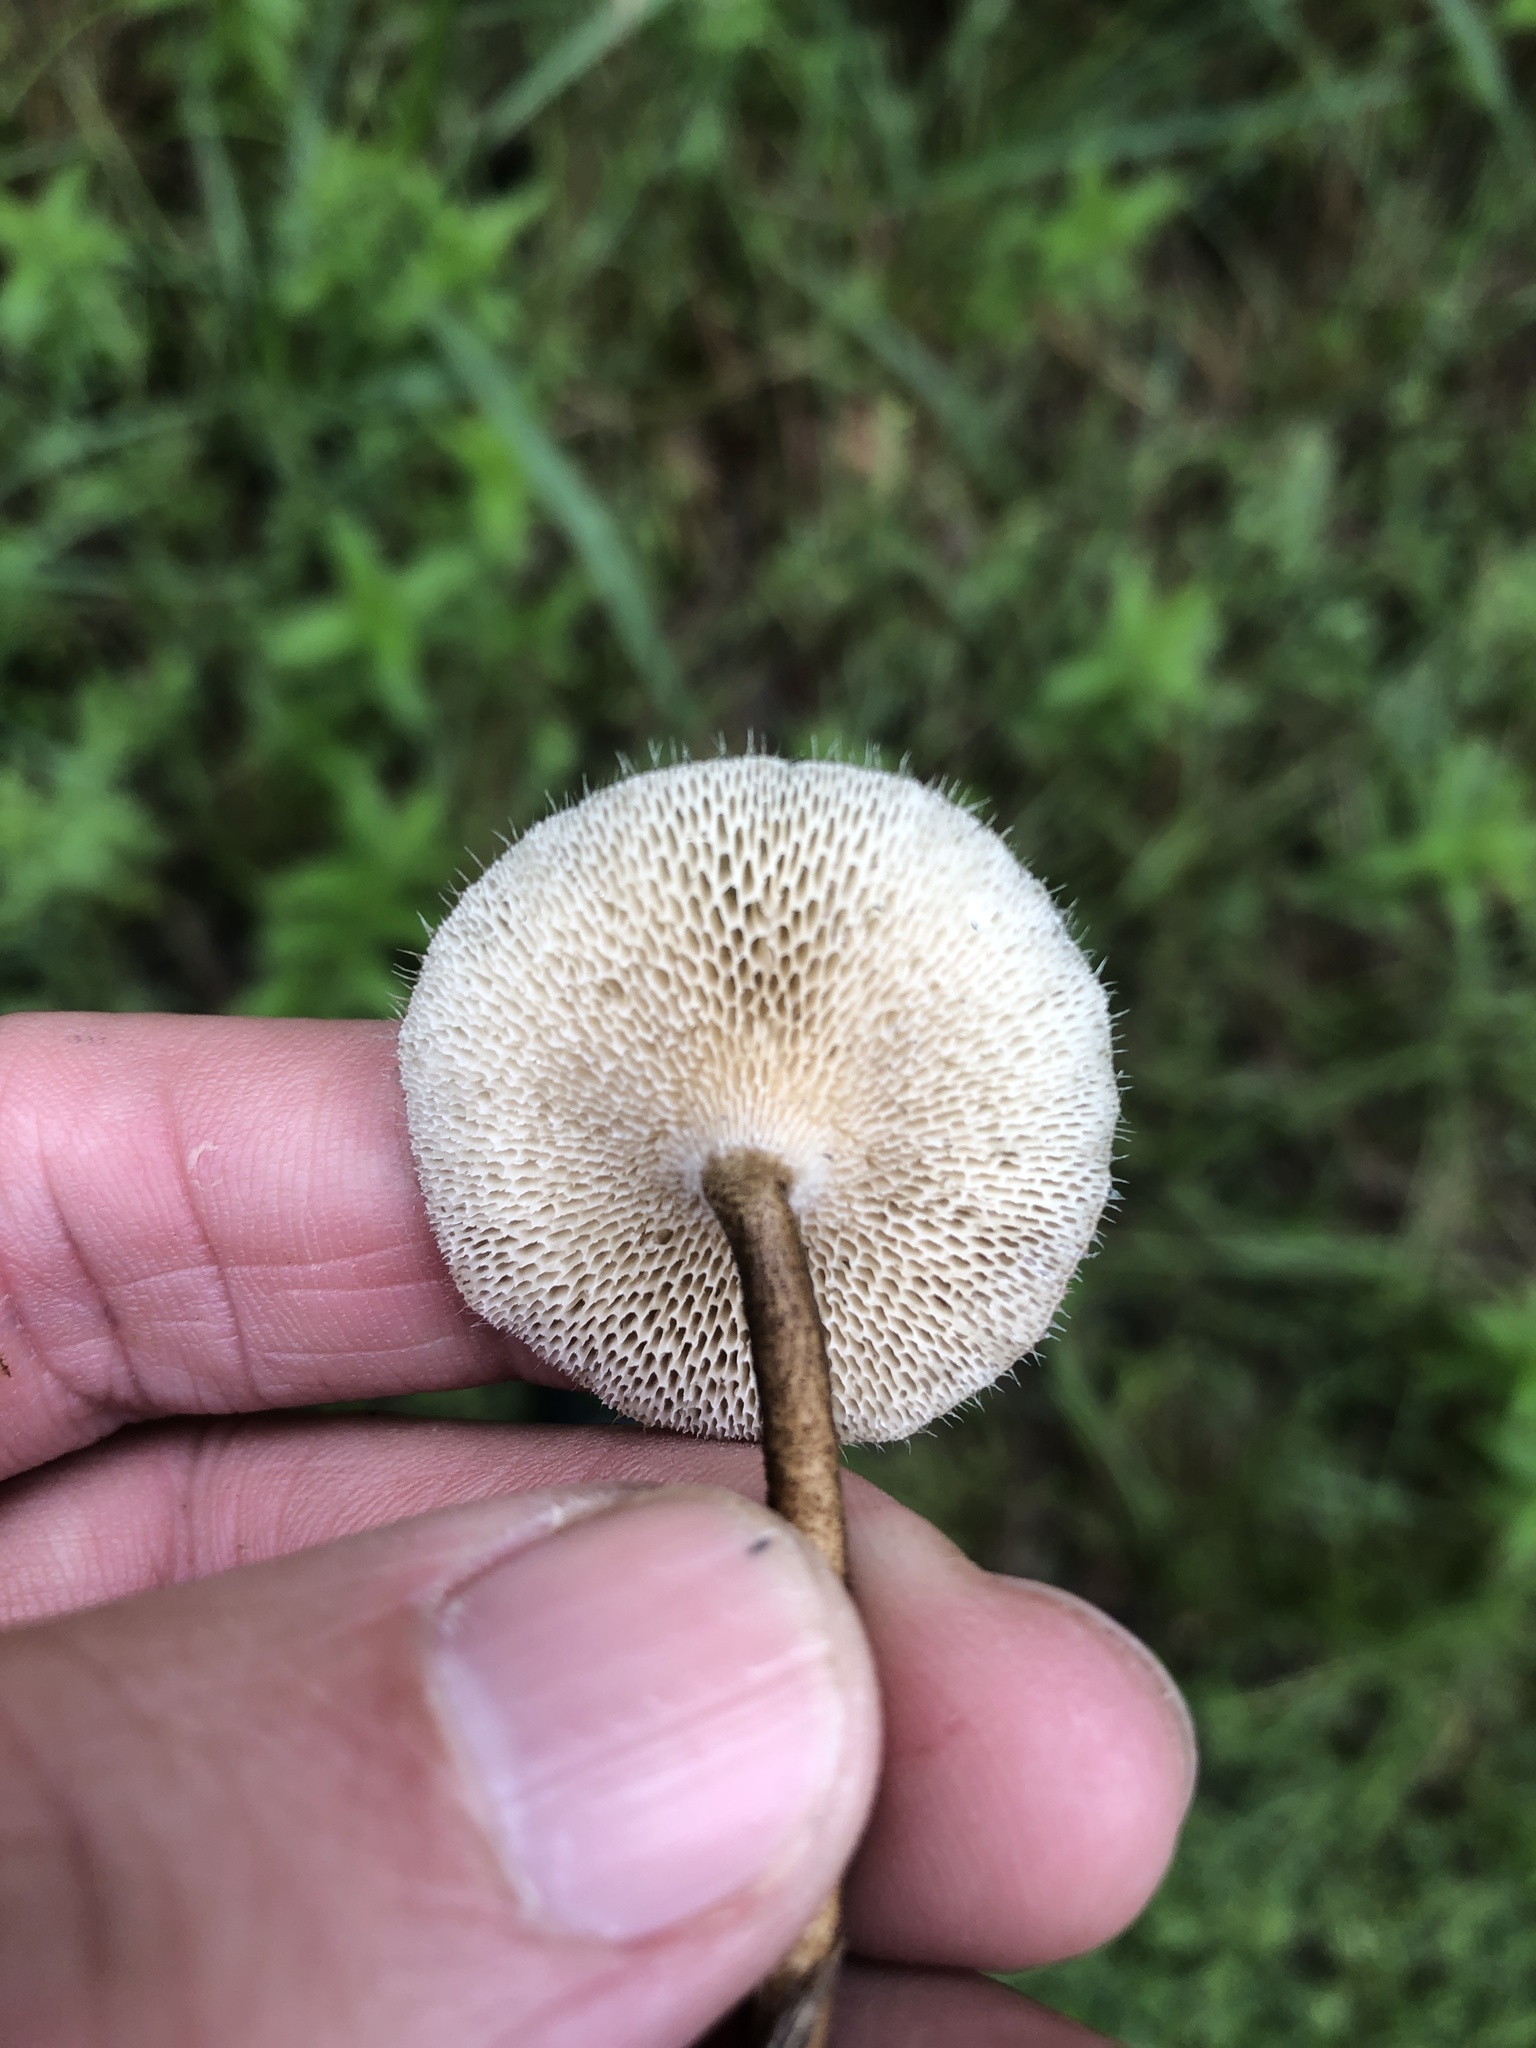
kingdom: Fungi
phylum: Basidiomycota
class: Agaricomycetes
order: Polyporales
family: Polyporaceae
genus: Lentinus
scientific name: Lentinus arcularius
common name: Spring polypore
